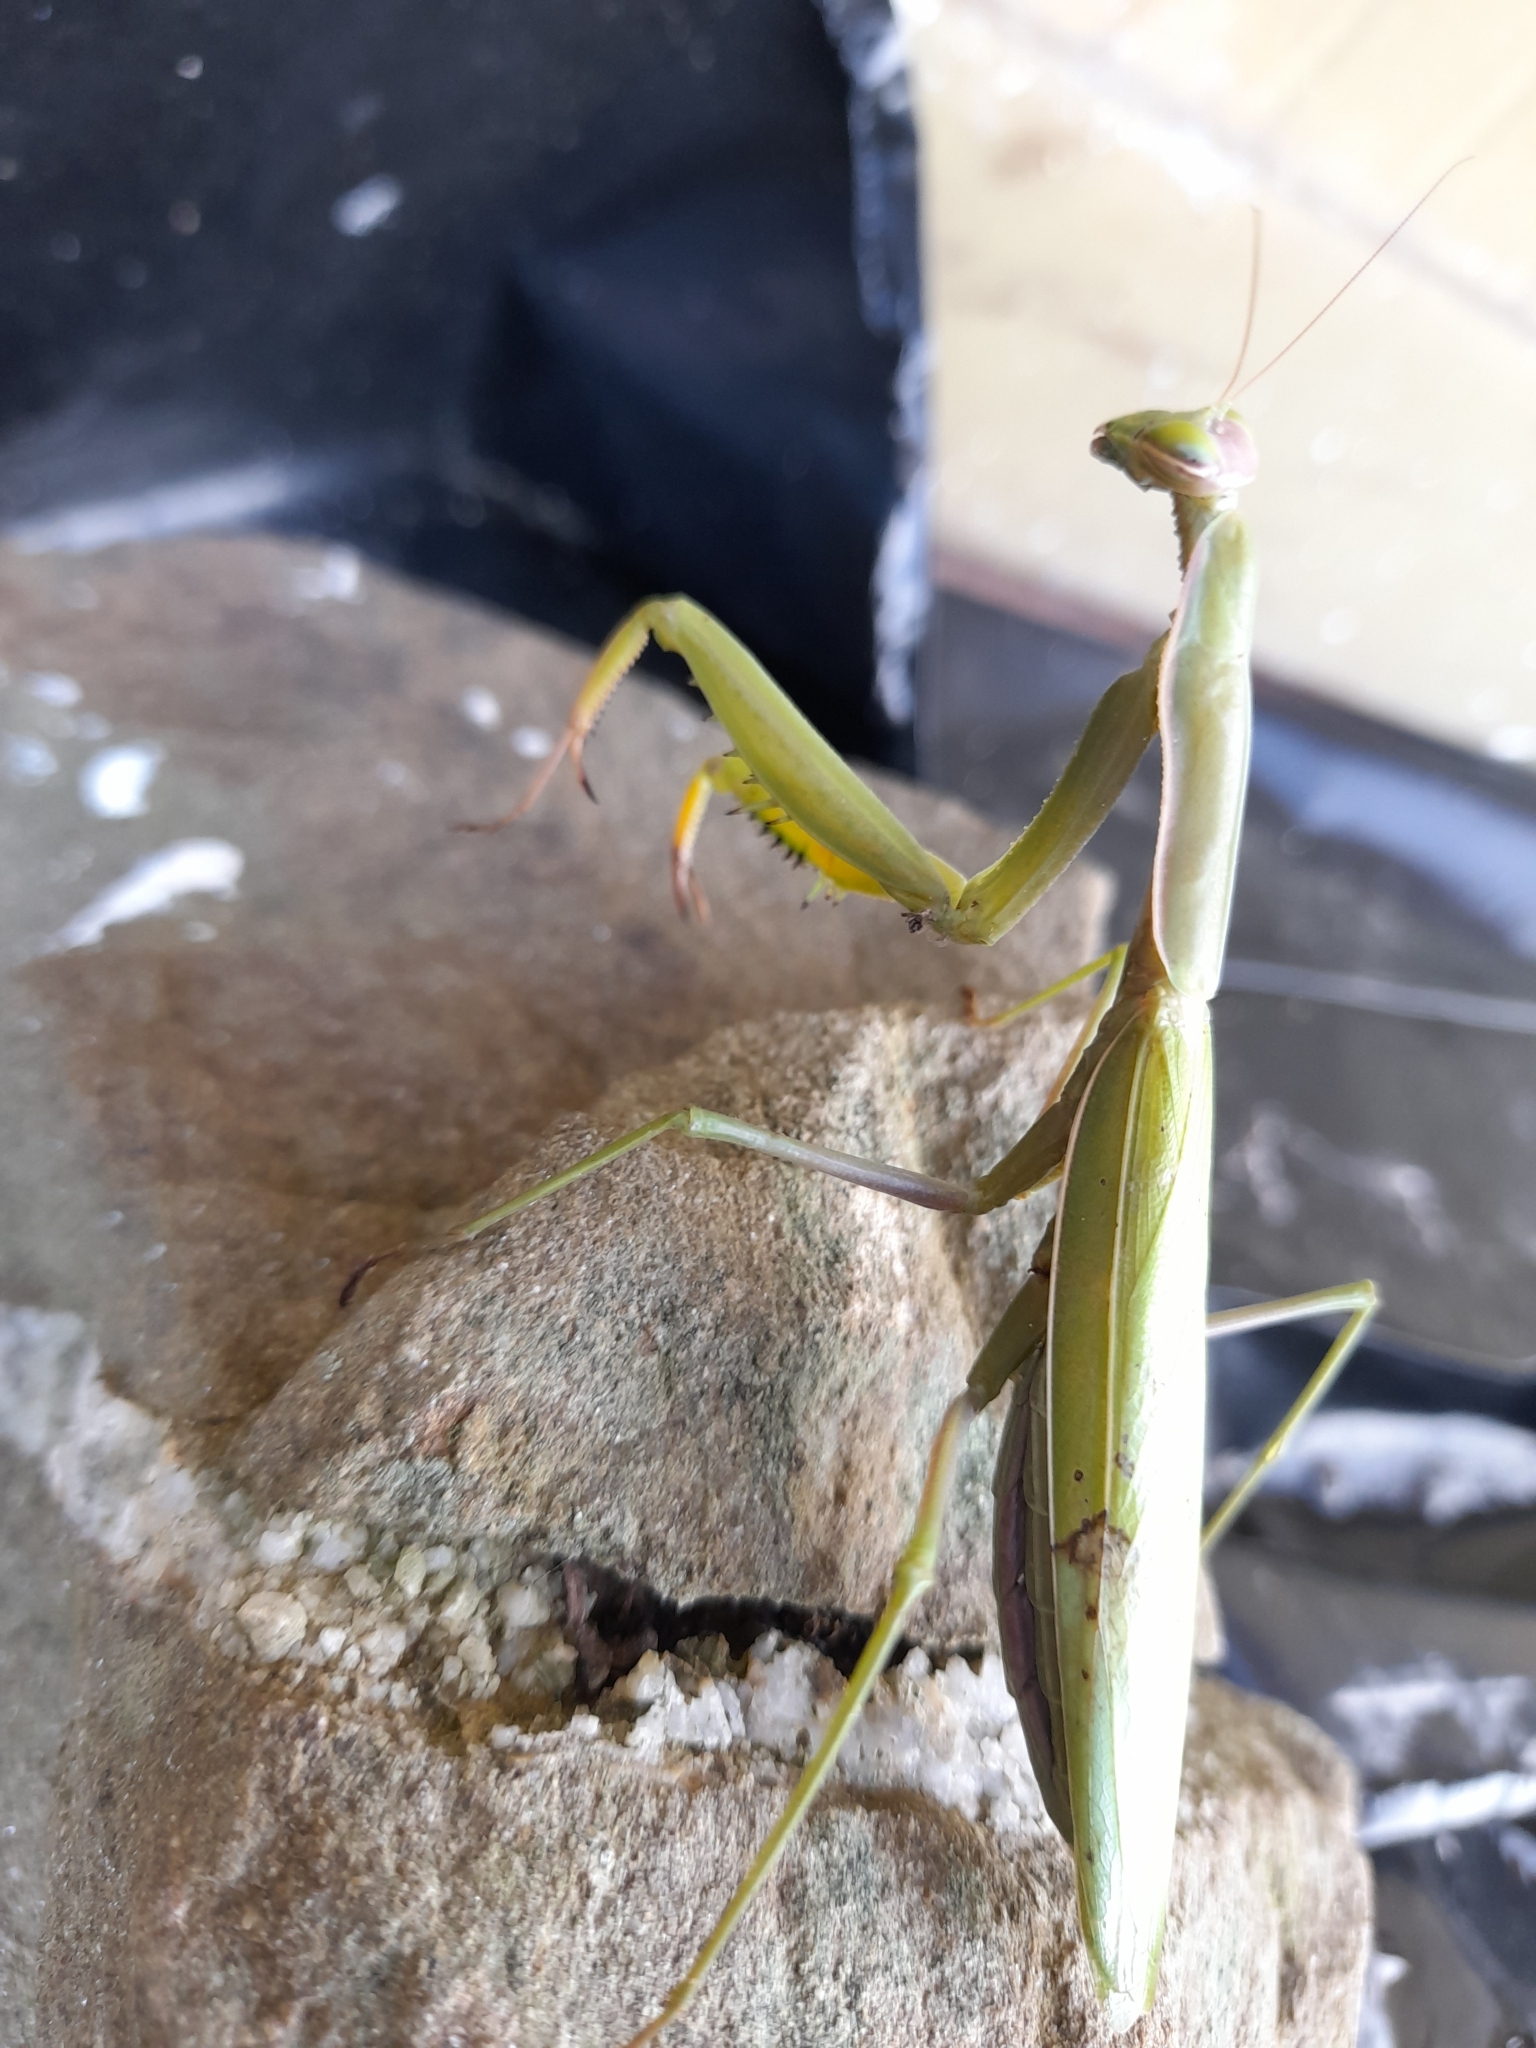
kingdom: Animalia
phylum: Arthropoda
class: Insecta
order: Mantodea
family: Mantidae
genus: Mantis
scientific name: Mantis religiosa
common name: Praying mantis
